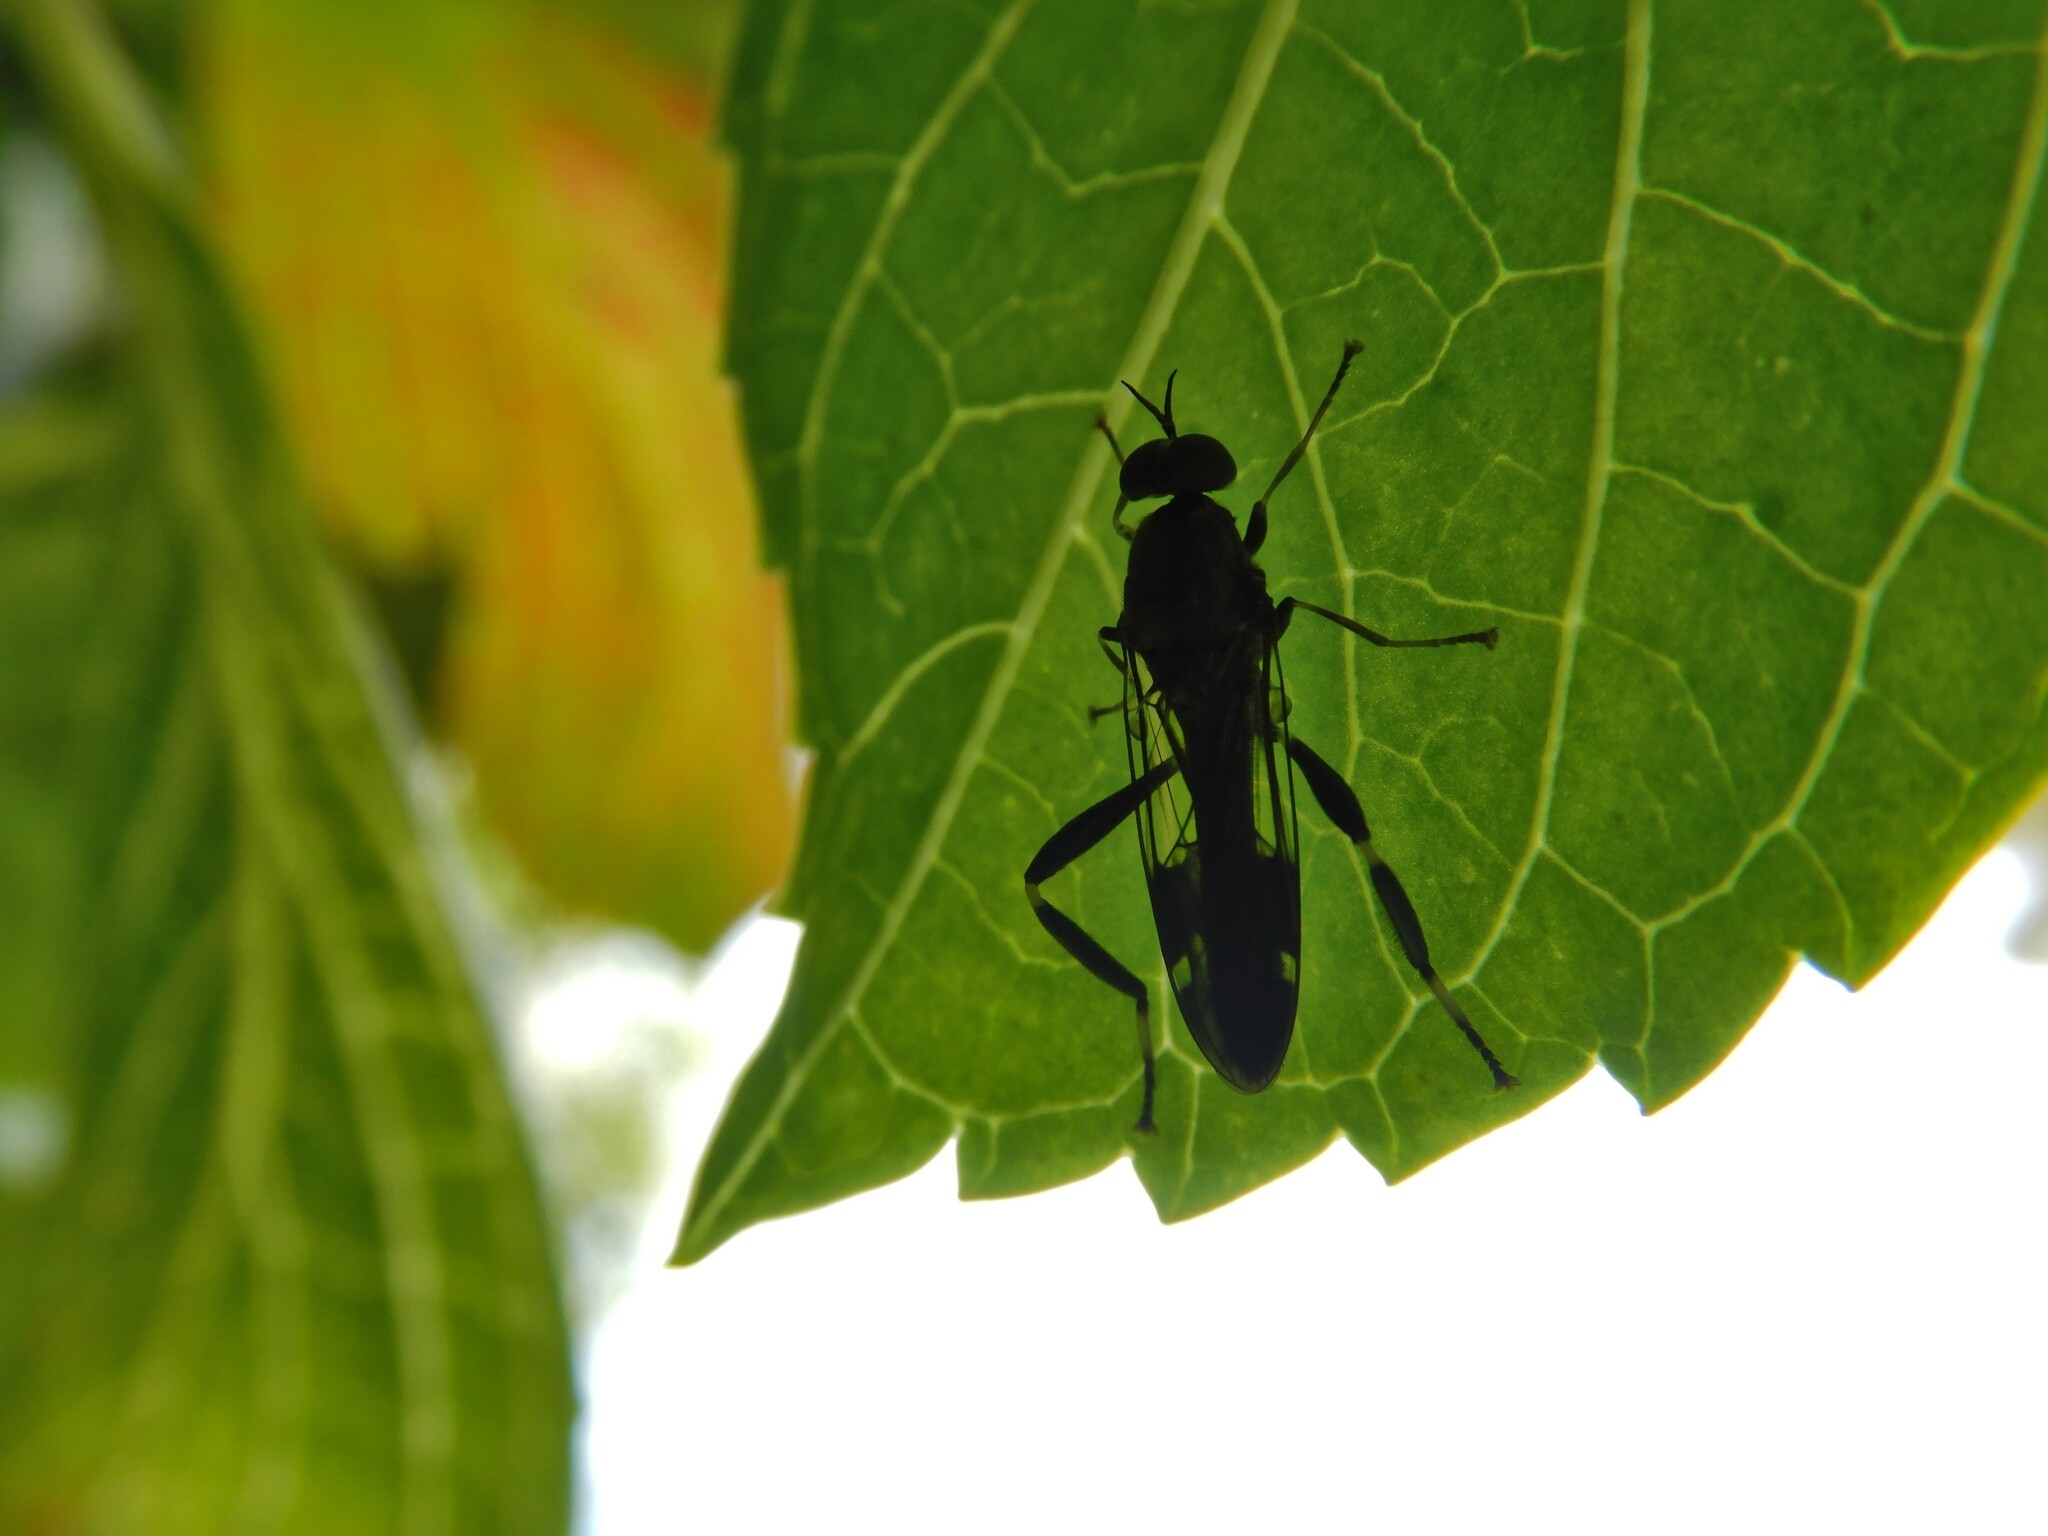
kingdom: Animalia
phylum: Arthropoda
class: Insecta
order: Diptera
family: Stratiomyidae
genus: Exaireta
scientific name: Exaireta spinigera
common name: Blue soldier fly
